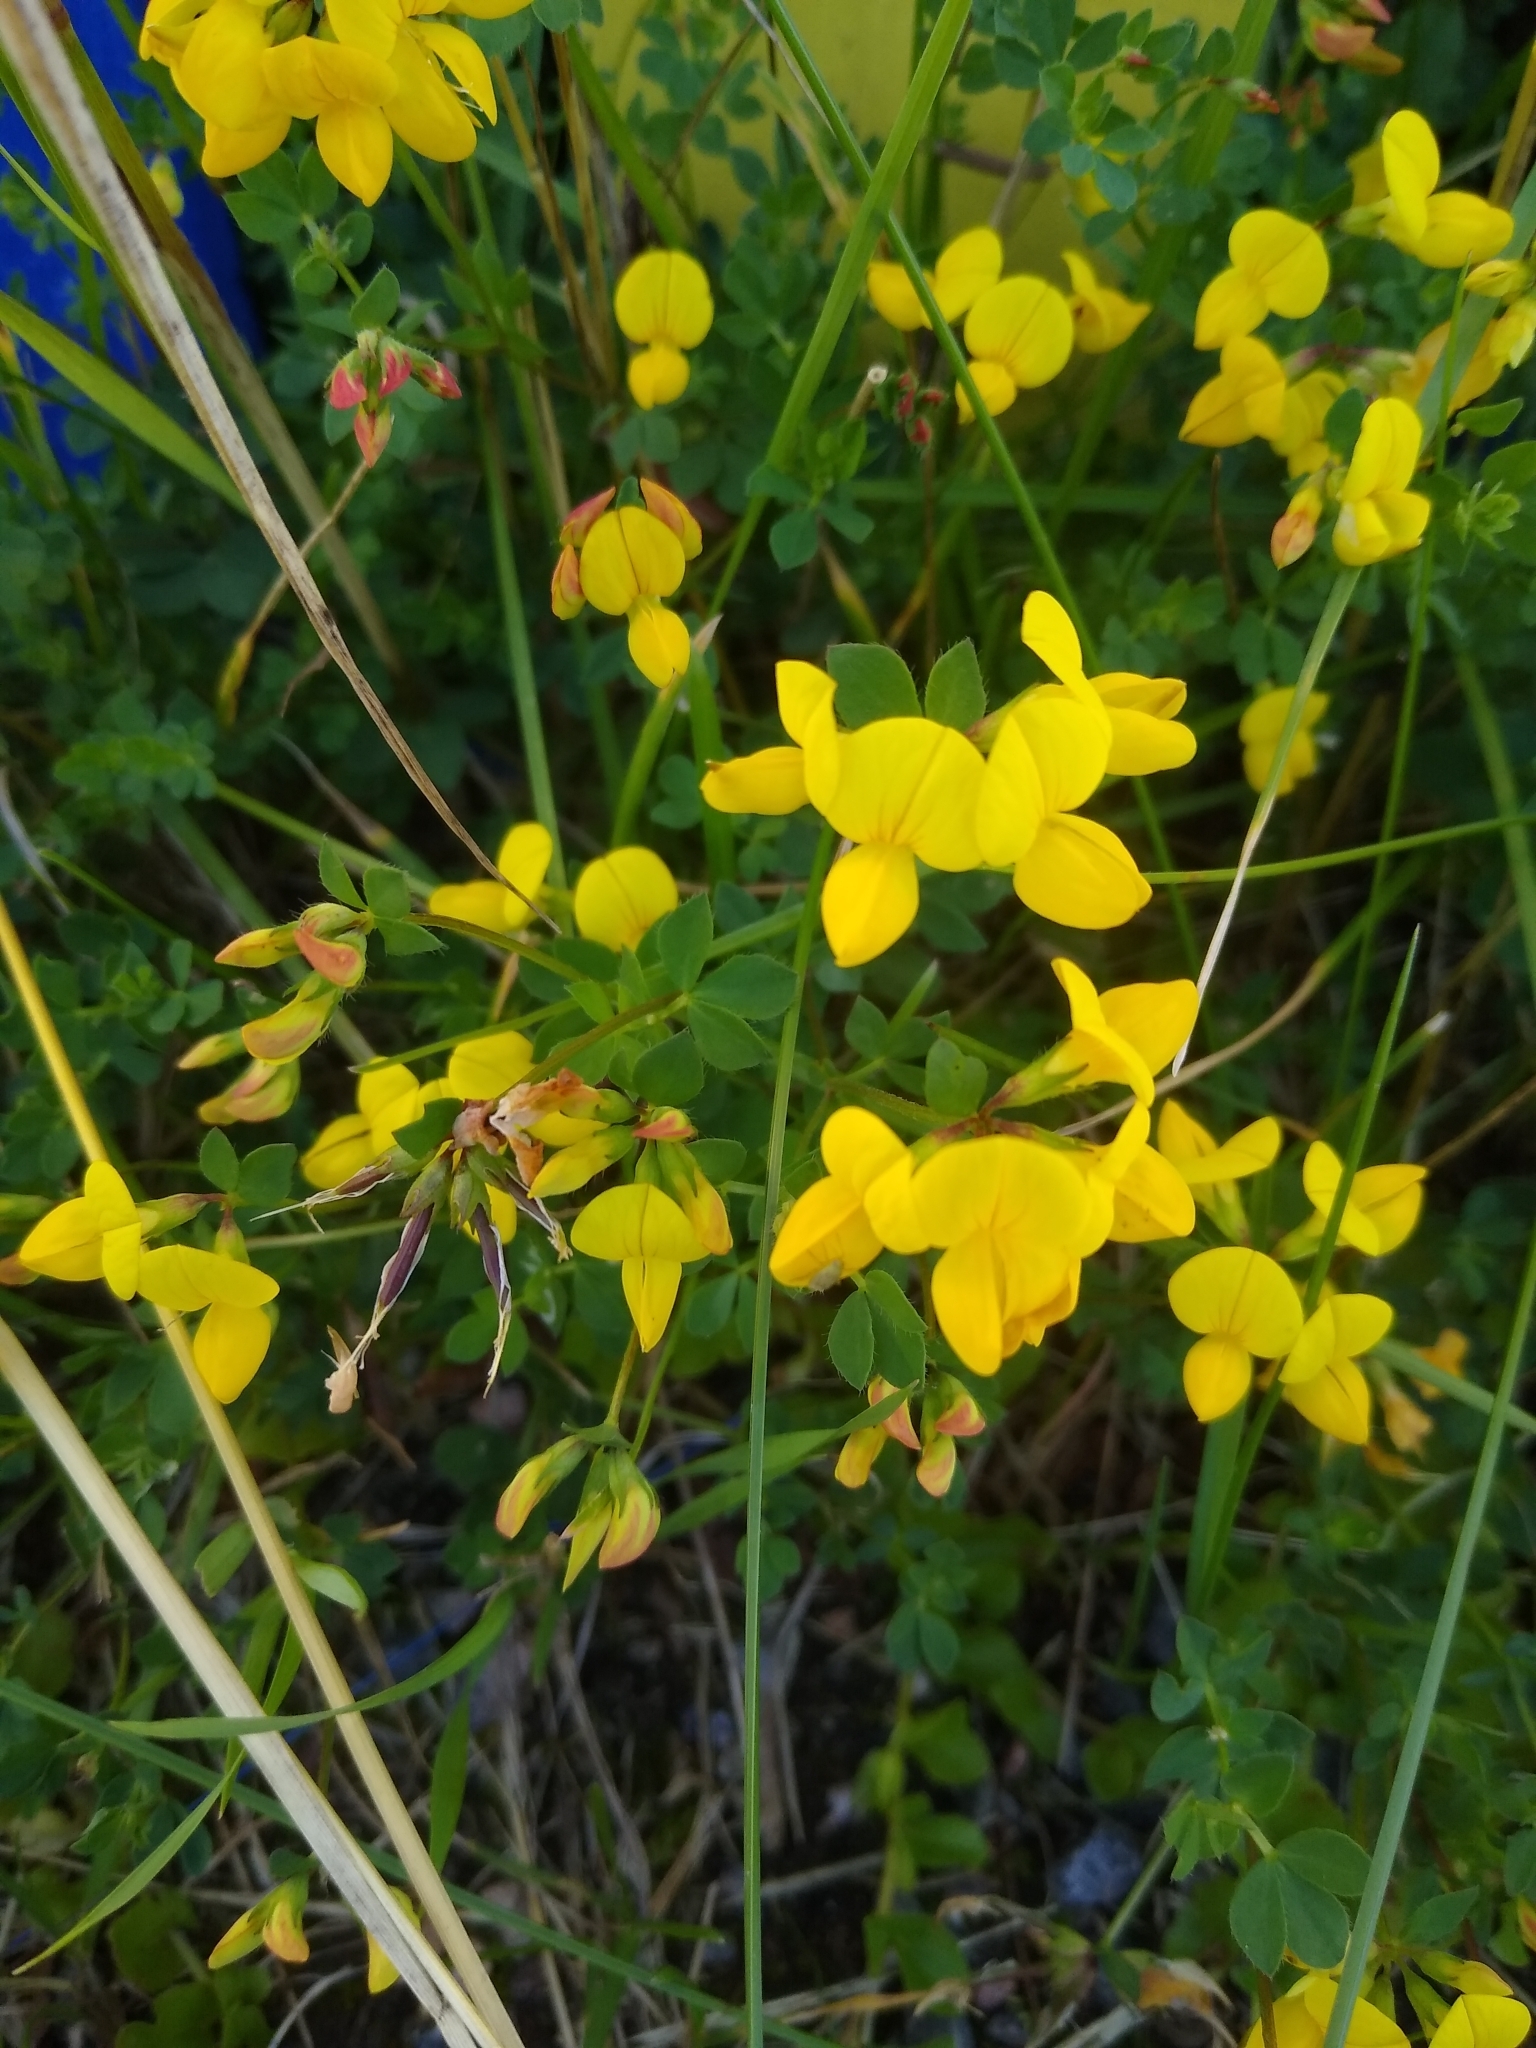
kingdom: Plantae
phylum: Tracheophyta
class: Magnoliopsida
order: Fabales
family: Fabaceae
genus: Lotus
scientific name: Lotus corniculatus
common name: Common bird's-foot-trefoil
